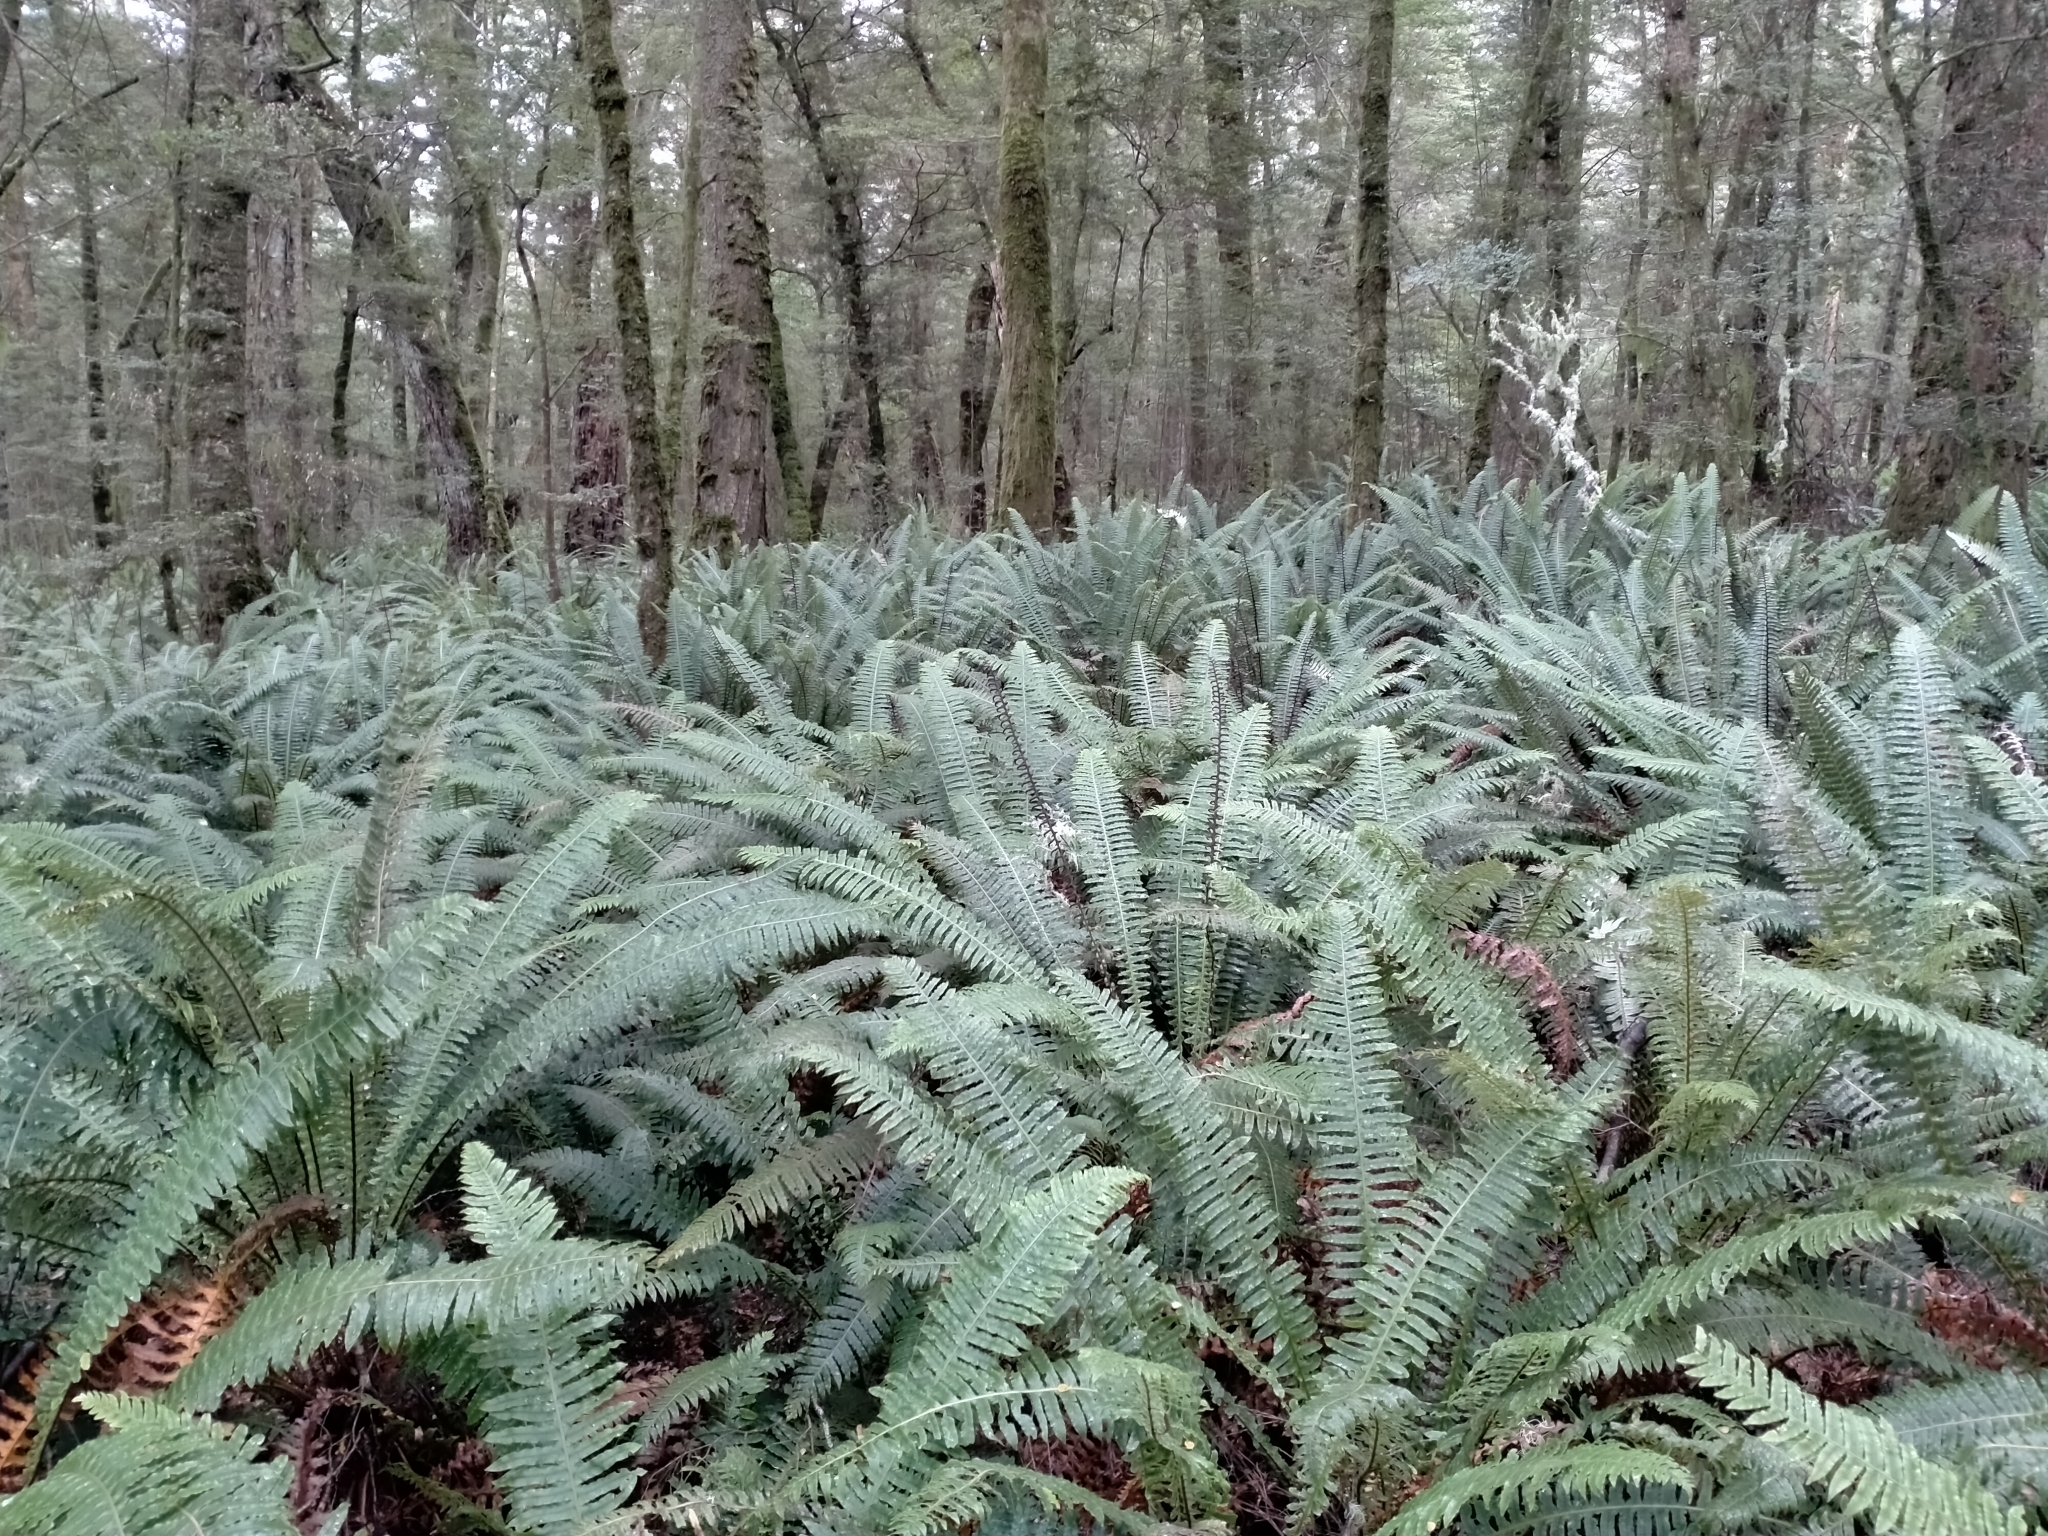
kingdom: Plantae
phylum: Tracheophyta
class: Polypodiopsida
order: Polypodiales
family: Blechnaceae
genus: Lomaria
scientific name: Lomaria discolor
